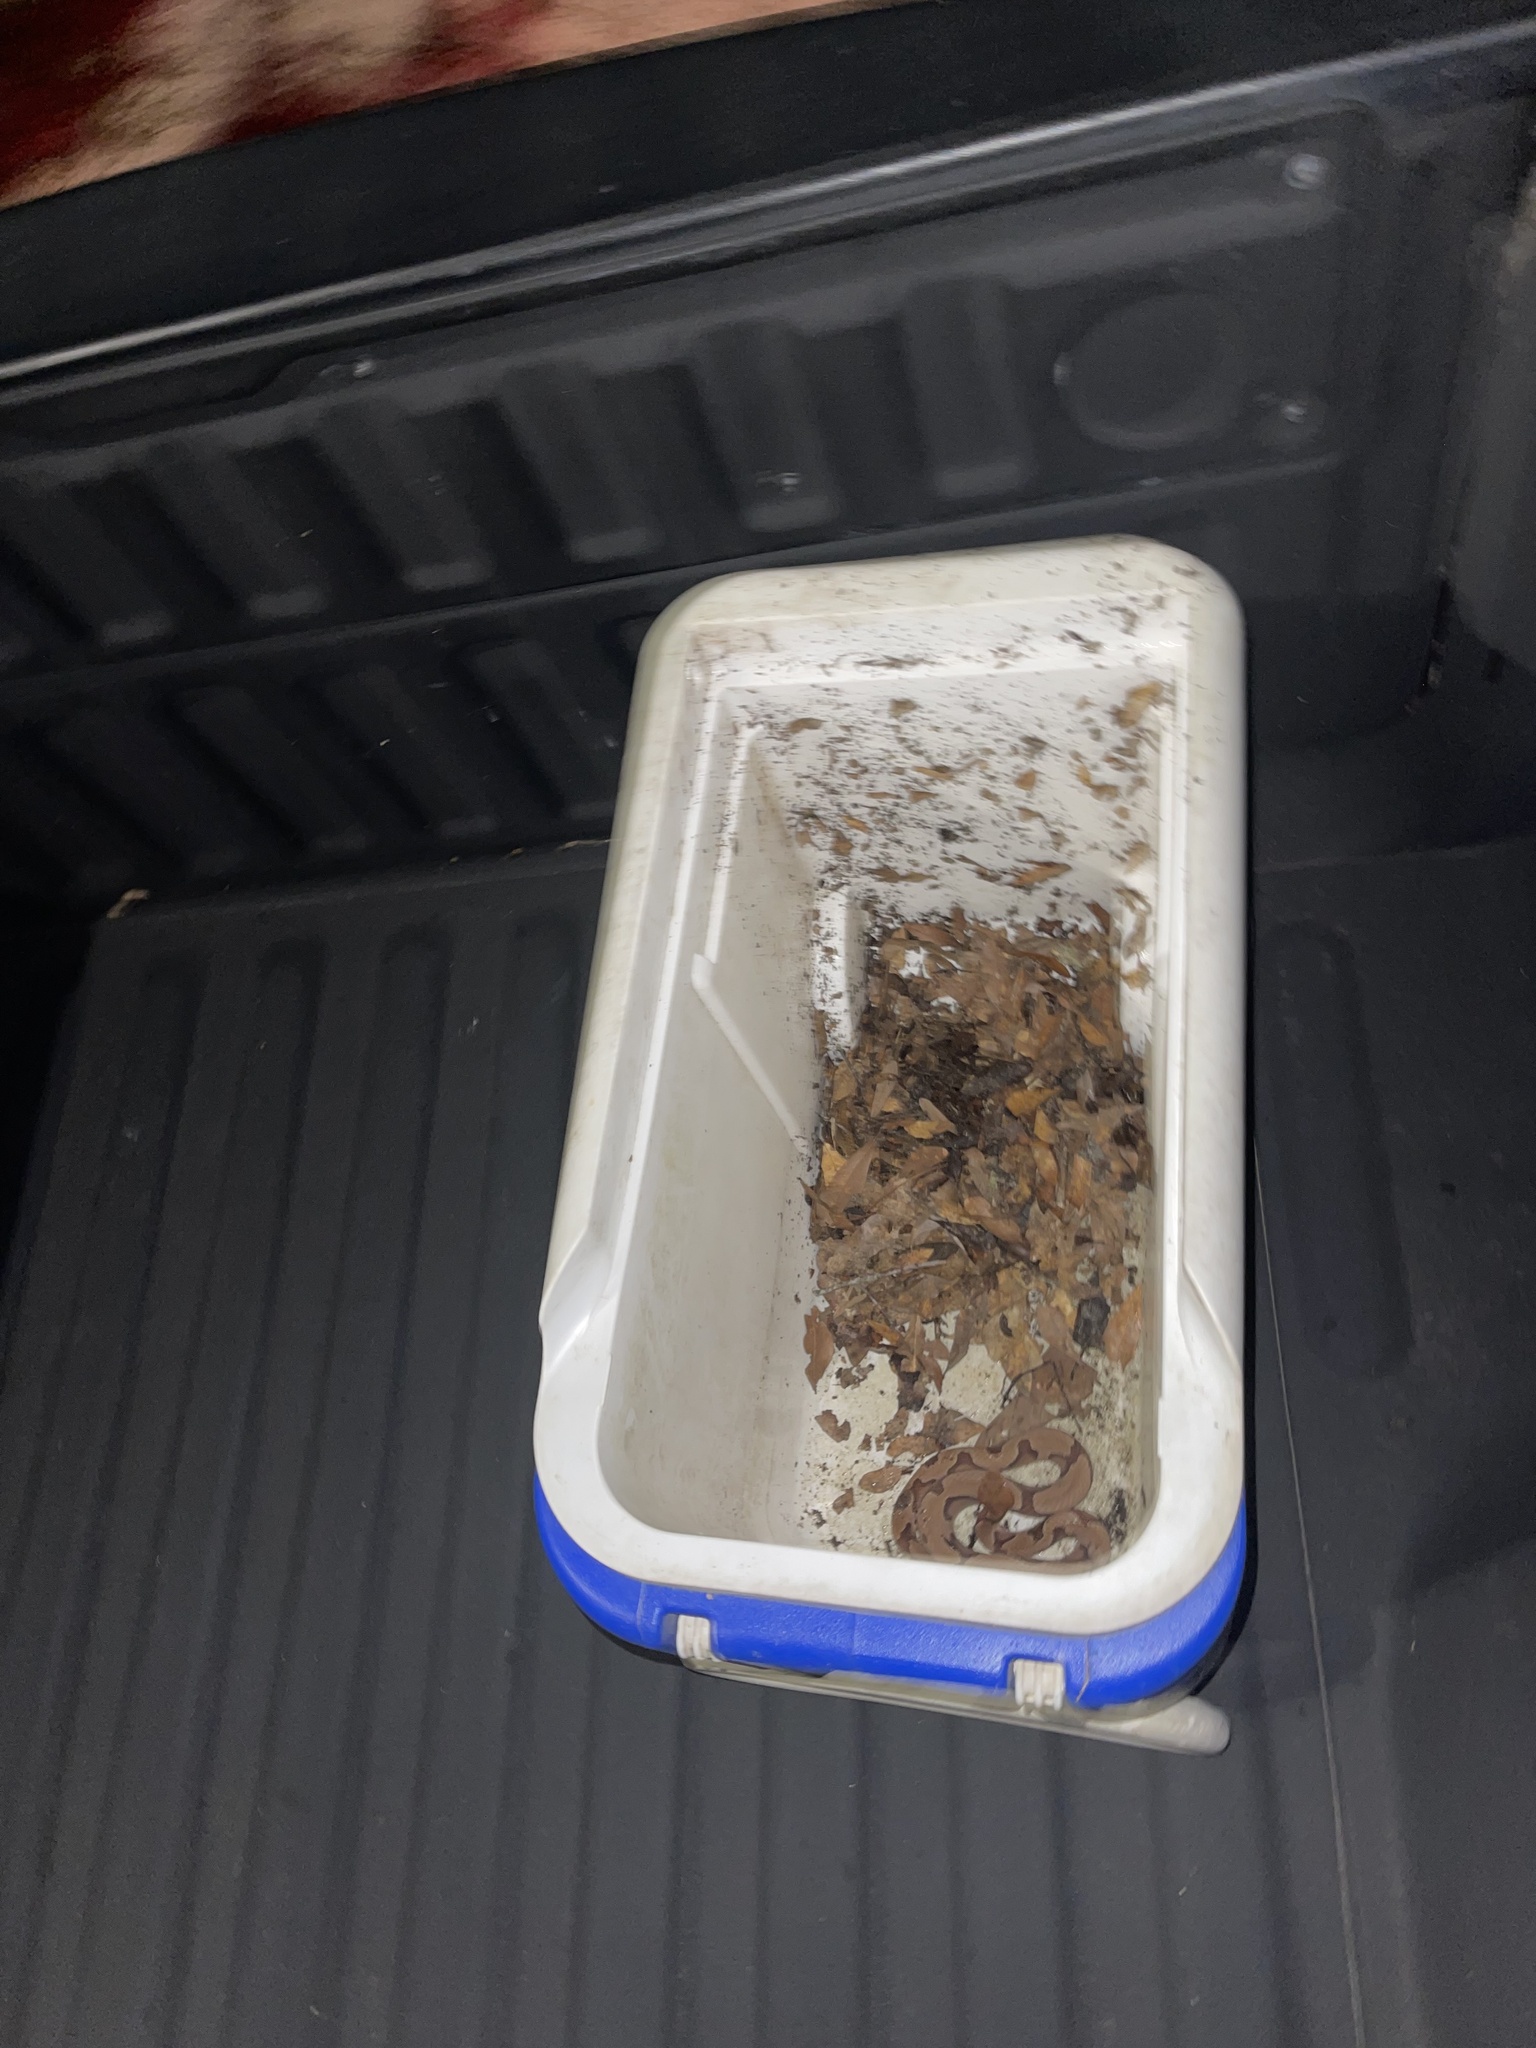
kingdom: Animalia
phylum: Chordata
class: Squamata
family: Viperidae
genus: Agkistrodon
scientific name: Agkistrodon contortrix
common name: Northern copperhead
